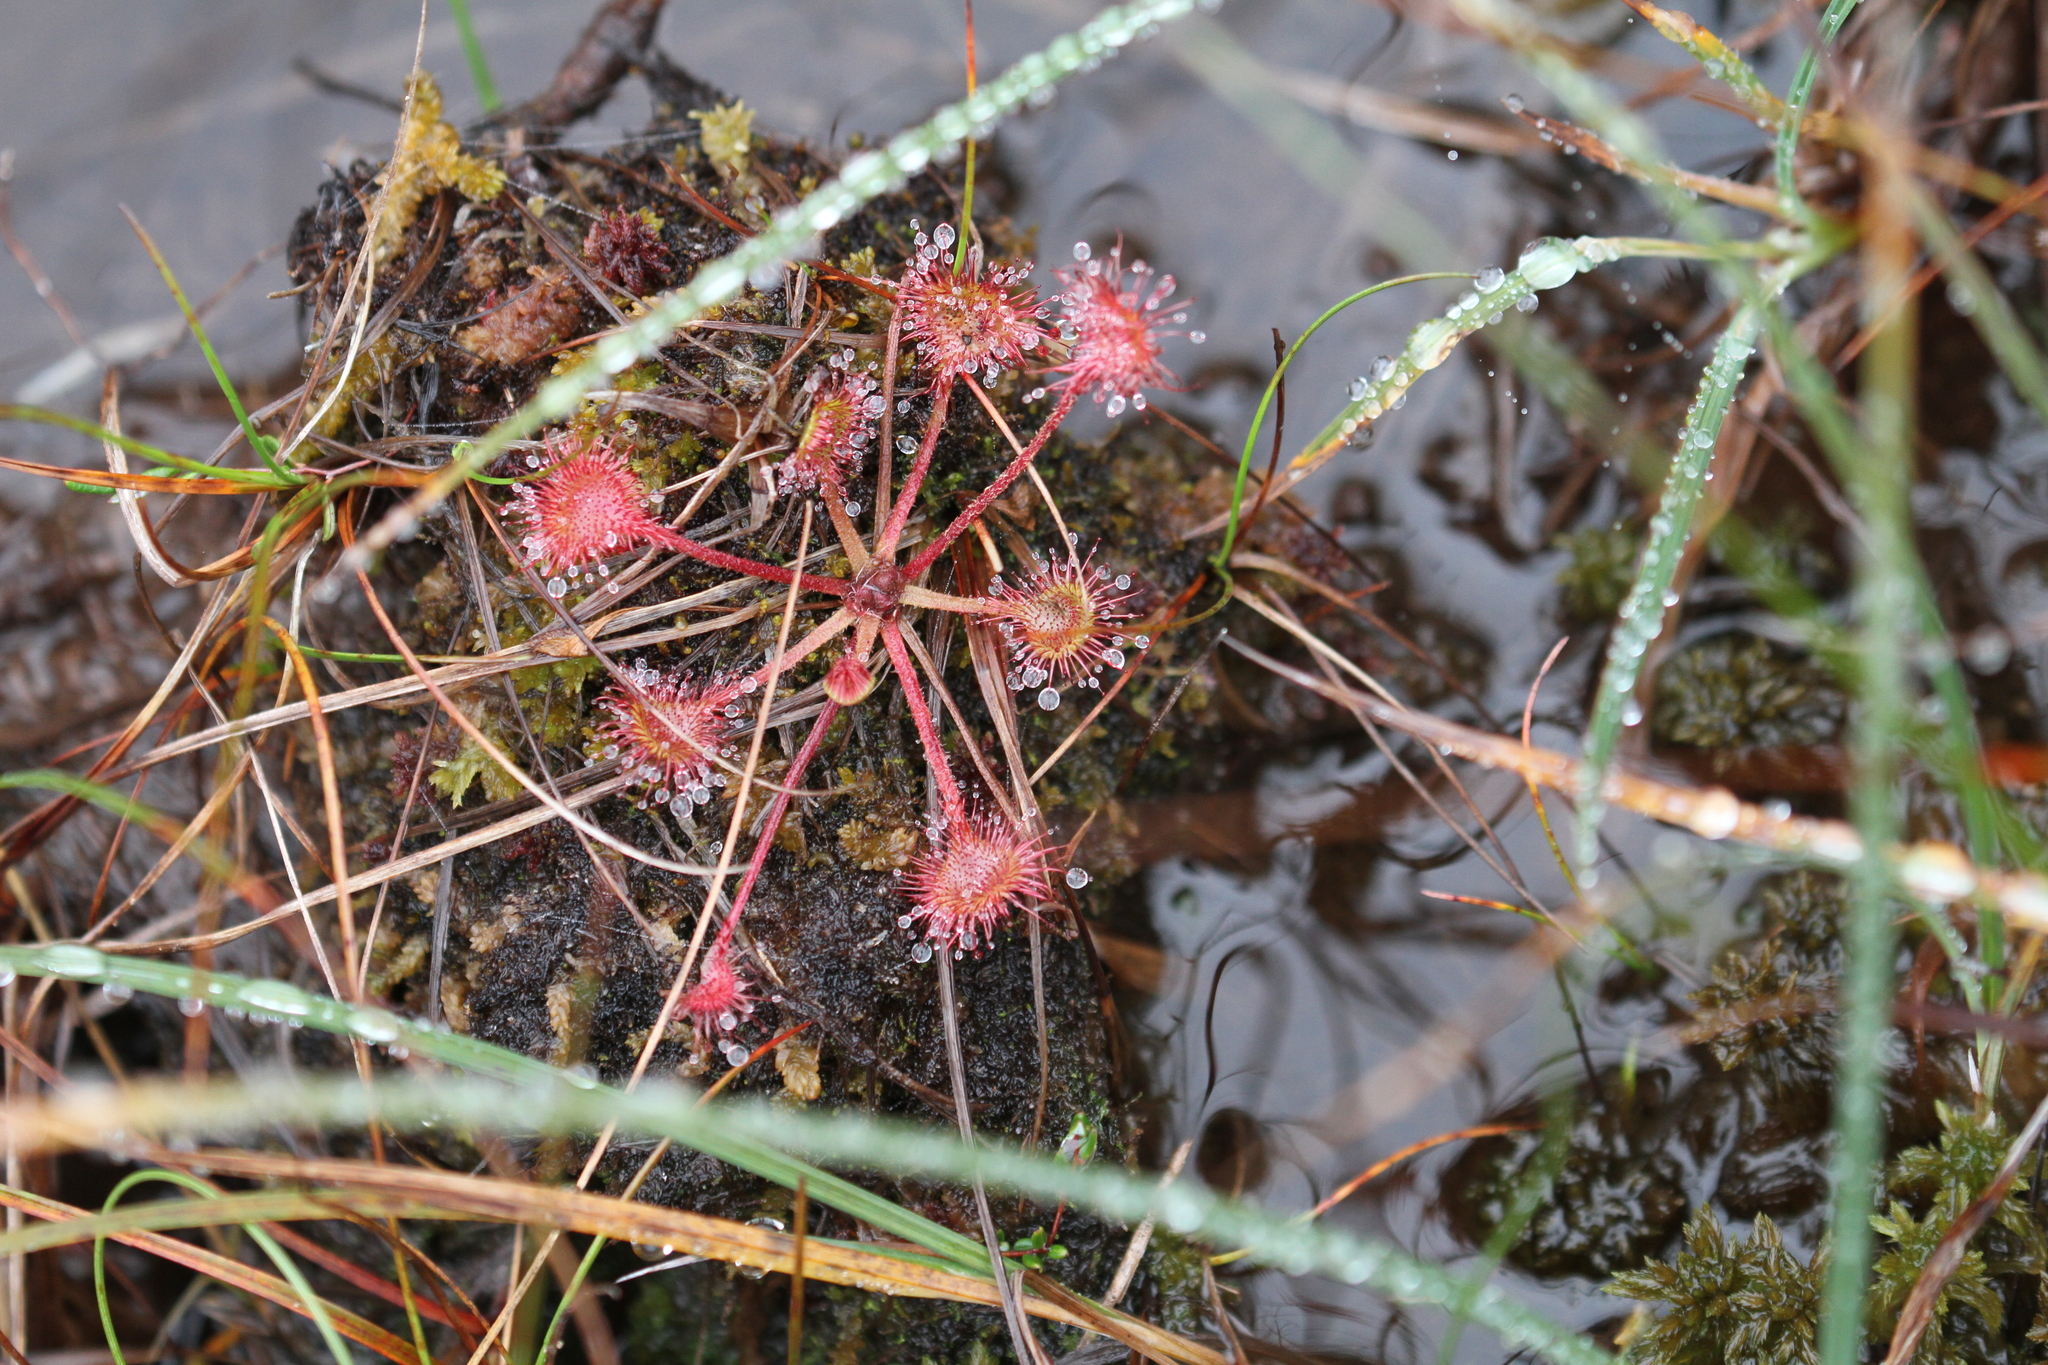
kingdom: Plantae
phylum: Tracheophyta
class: Magnoliopsida
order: Caryophyllales
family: Droseraceae
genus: Drosera
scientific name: Drosera rotundifolia
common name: Round-leaved sundew
